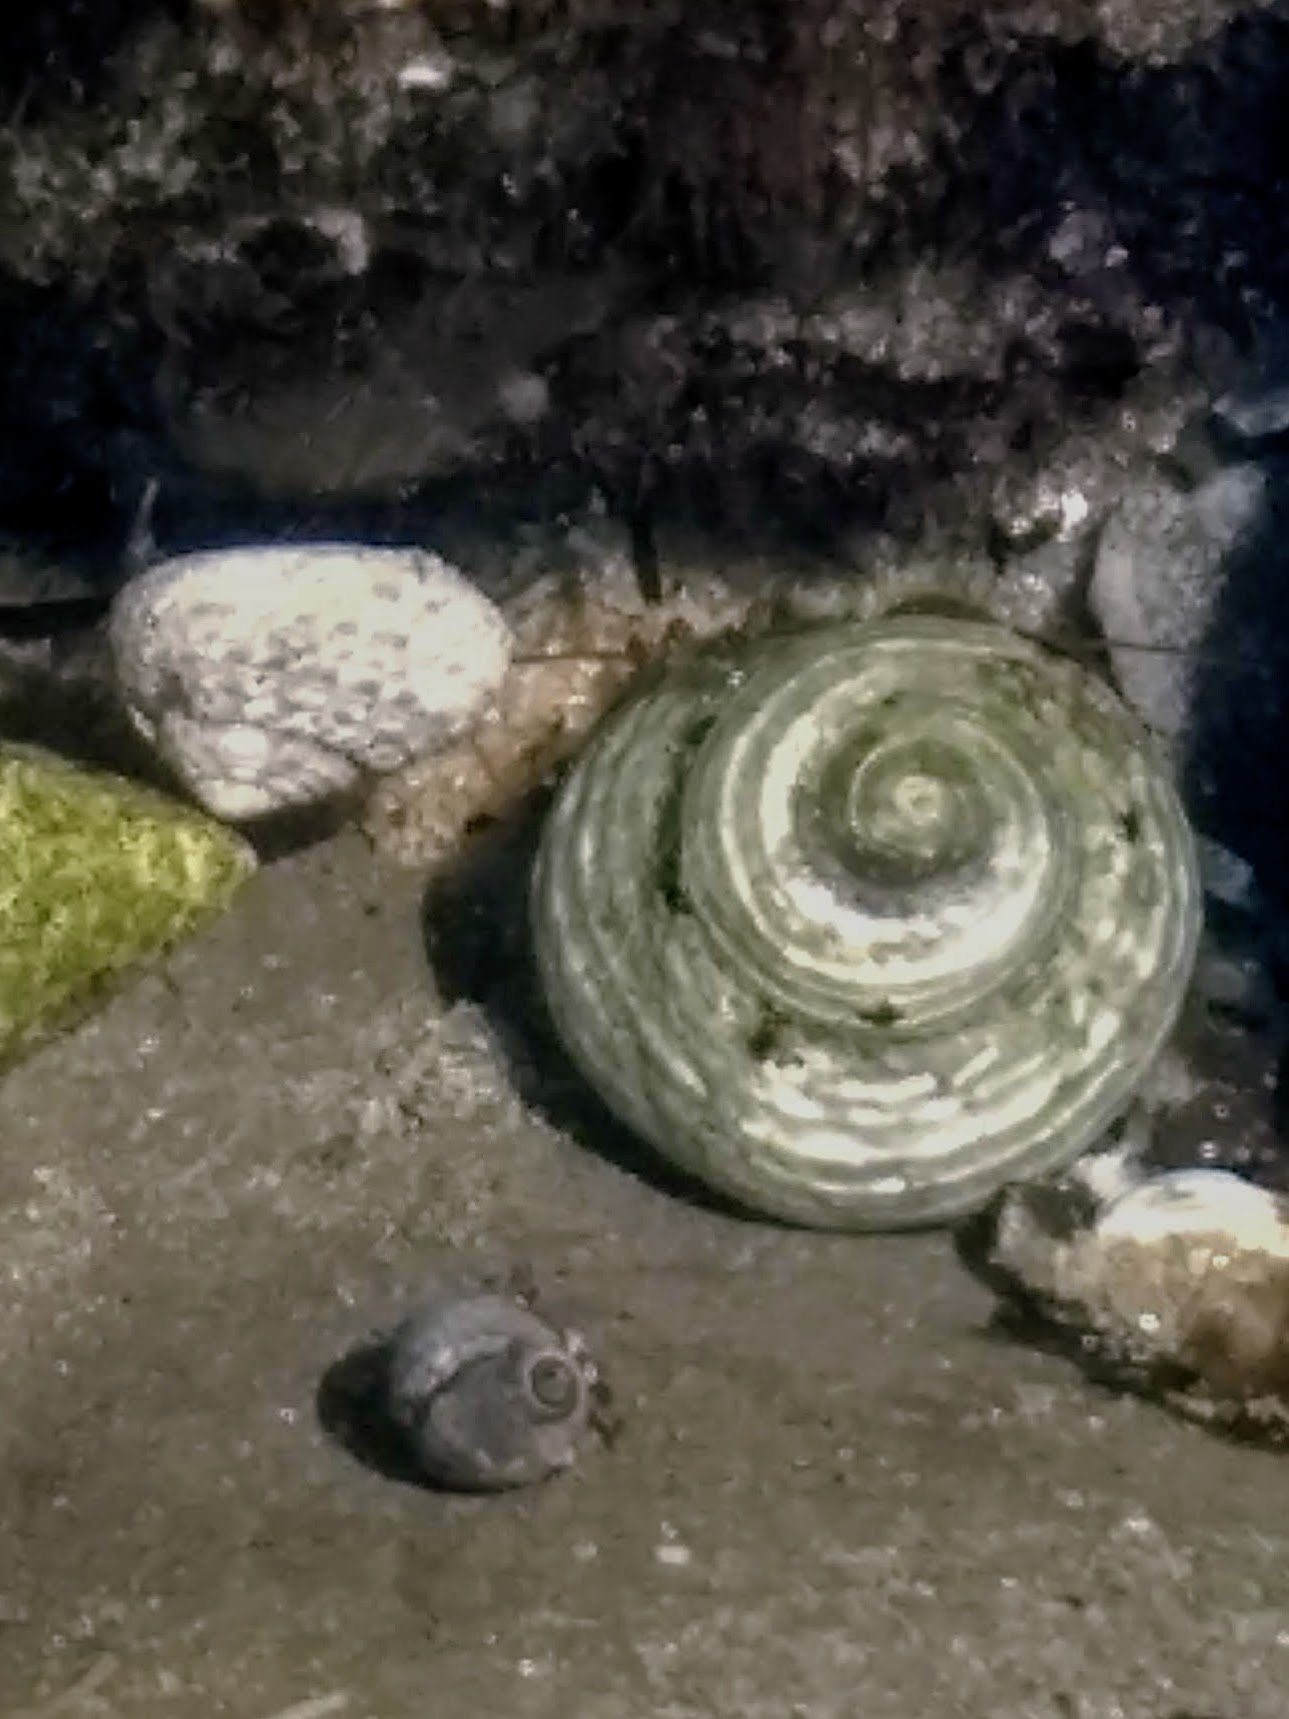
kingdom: Animalia
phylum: Mollusca
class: Gastropoda
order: Trochida
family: Tegulidae
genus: Tegula
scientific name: Tegula eiseni
